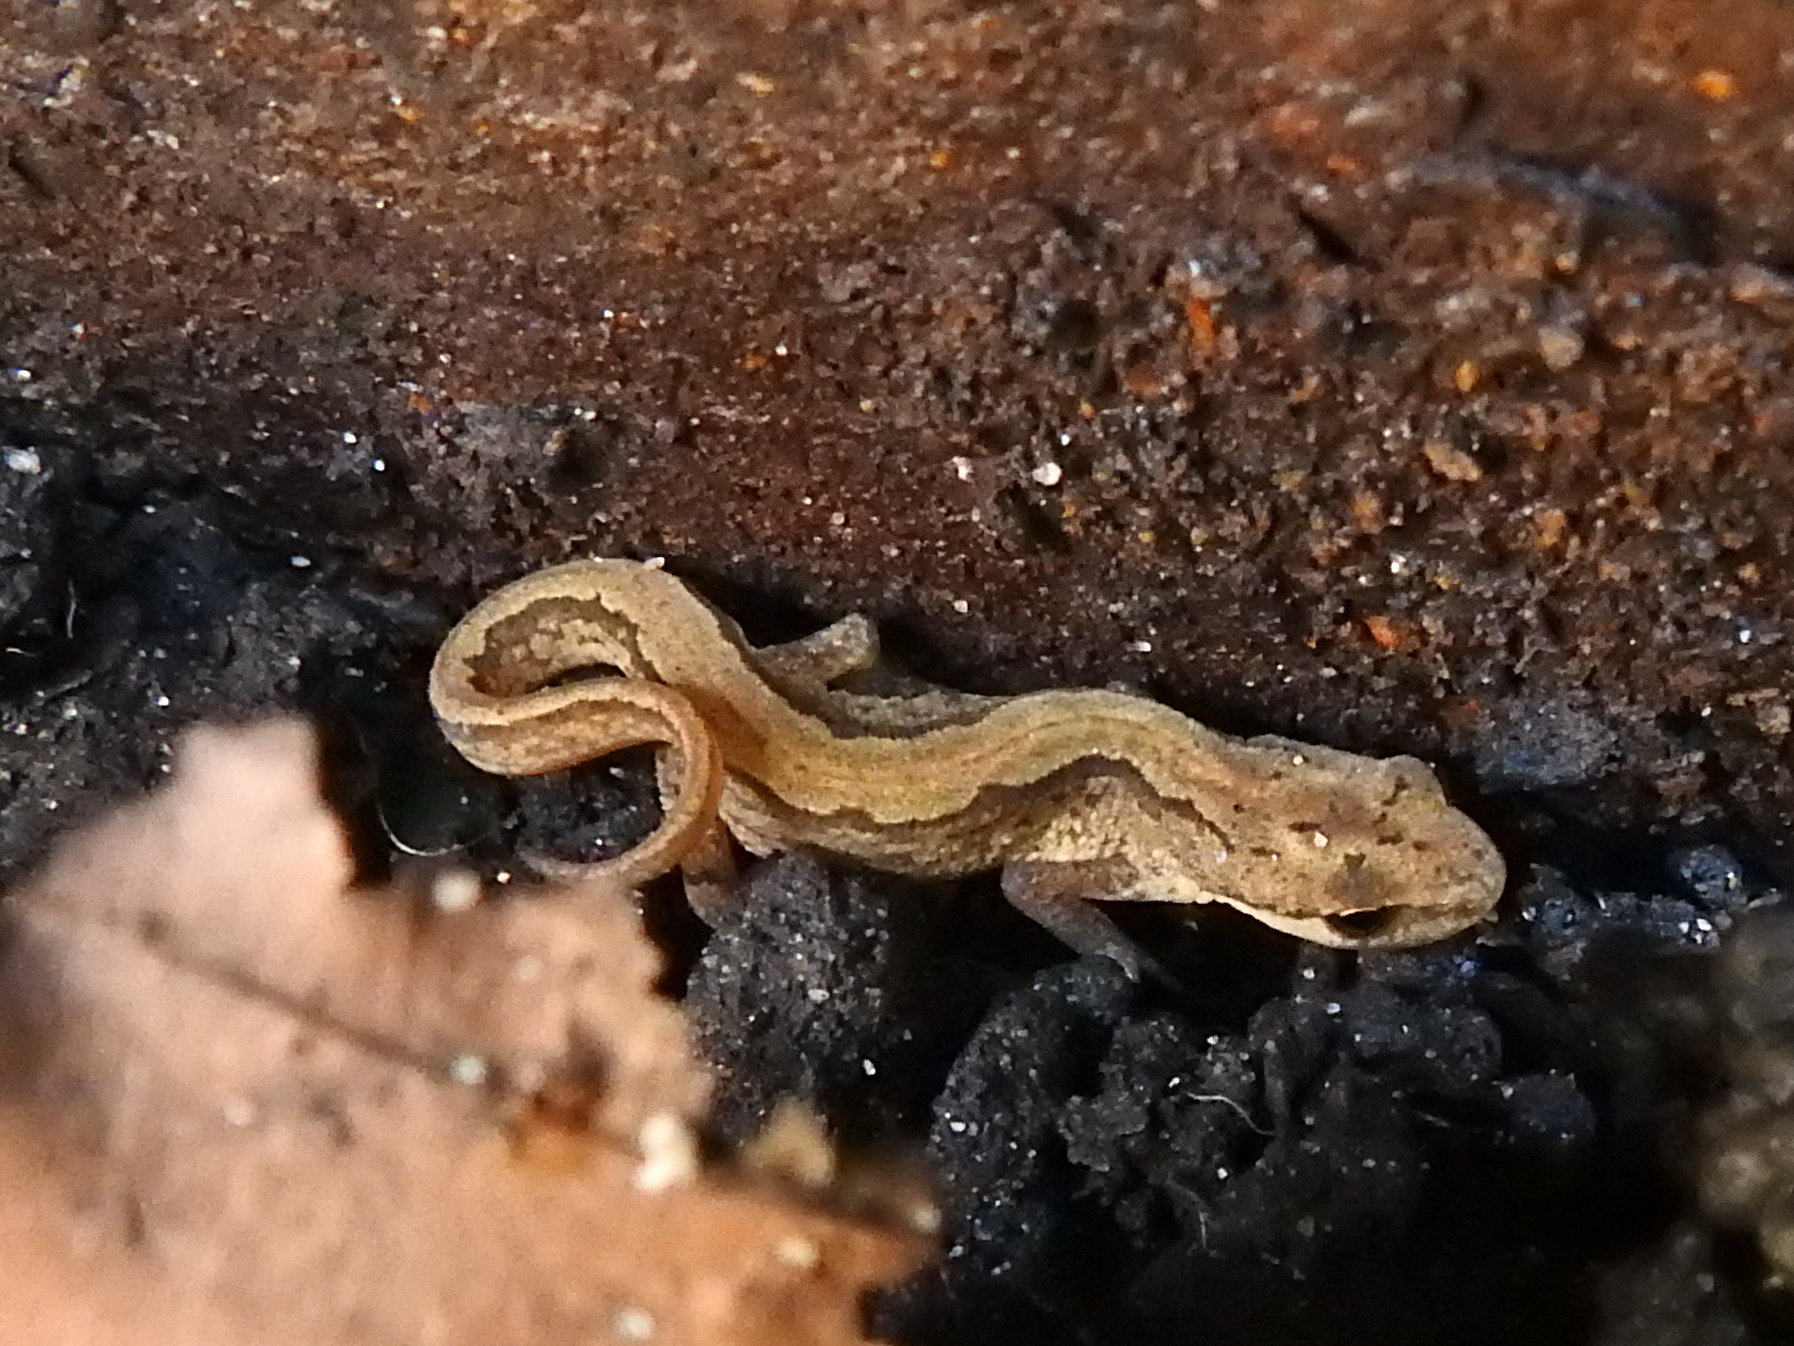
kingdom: Animalia
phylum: Chordata
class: Amphibia
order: Caudata
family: Salamandridae
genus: Lissotriton
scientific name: Lissotriton vulgaris
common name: Smooth newt
